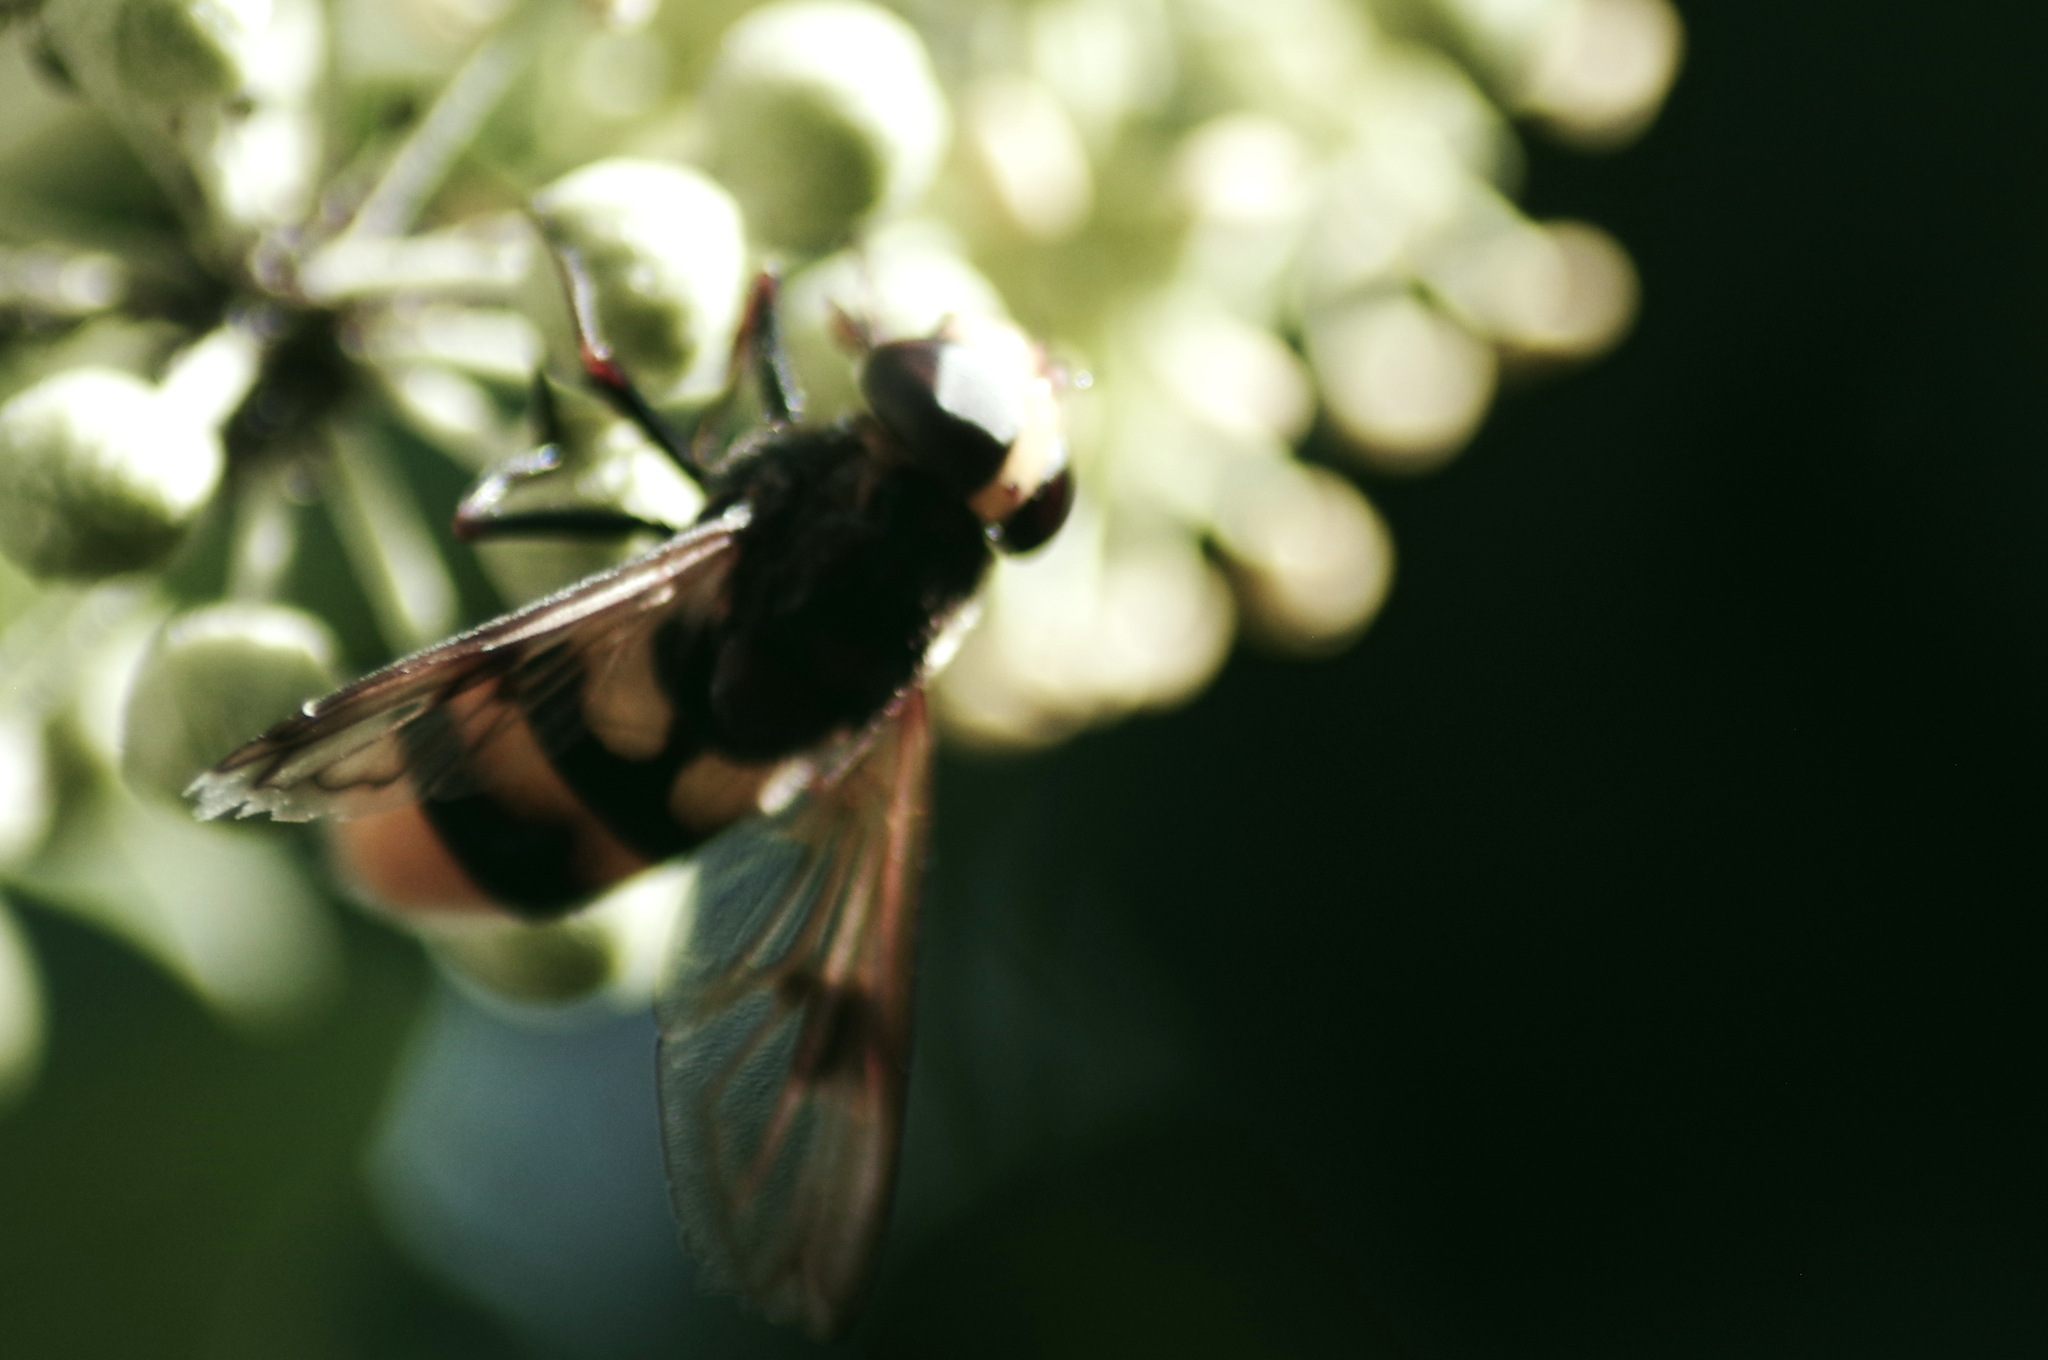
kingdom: Animalia
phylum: Arthropoda
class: Insecta
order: Diptera
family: Syrphidae
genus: Volucella
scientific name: Volucella elegans
